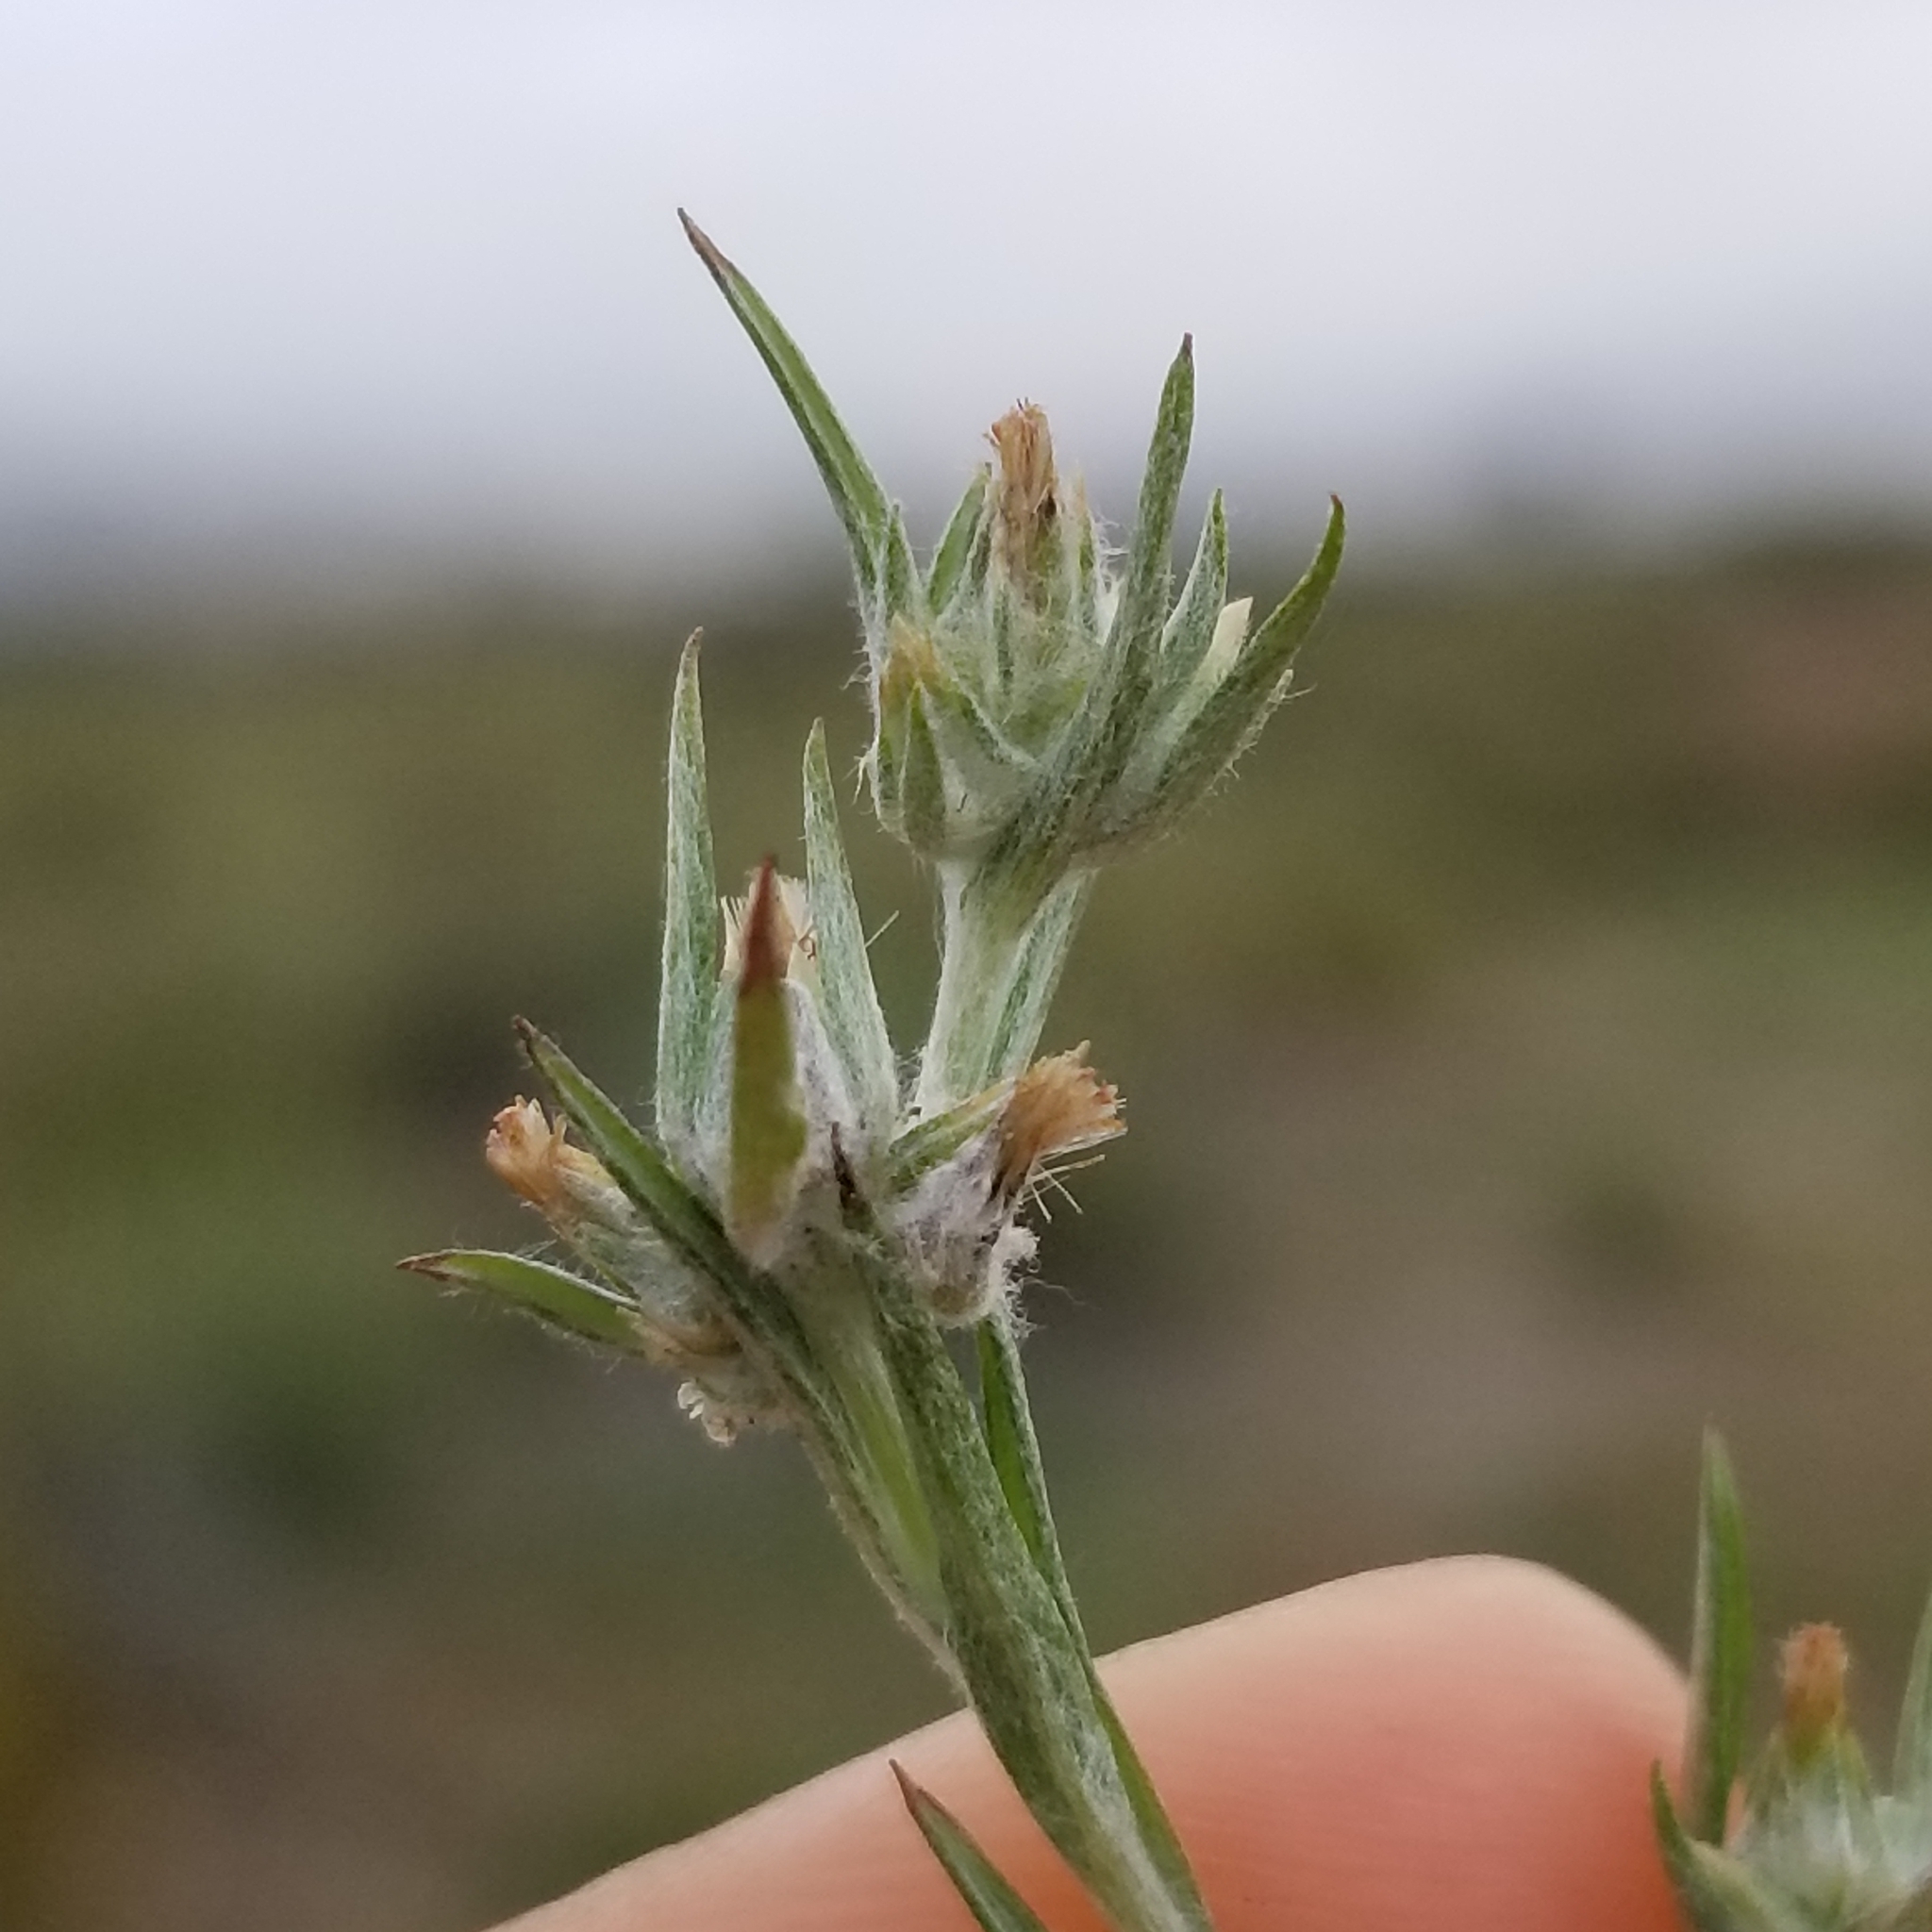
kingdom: Plantae
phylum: Tracheophyta
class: Magnoliopsida
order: Asterales
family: Asteraceae
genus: Logfia
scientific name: Logfia gallica
